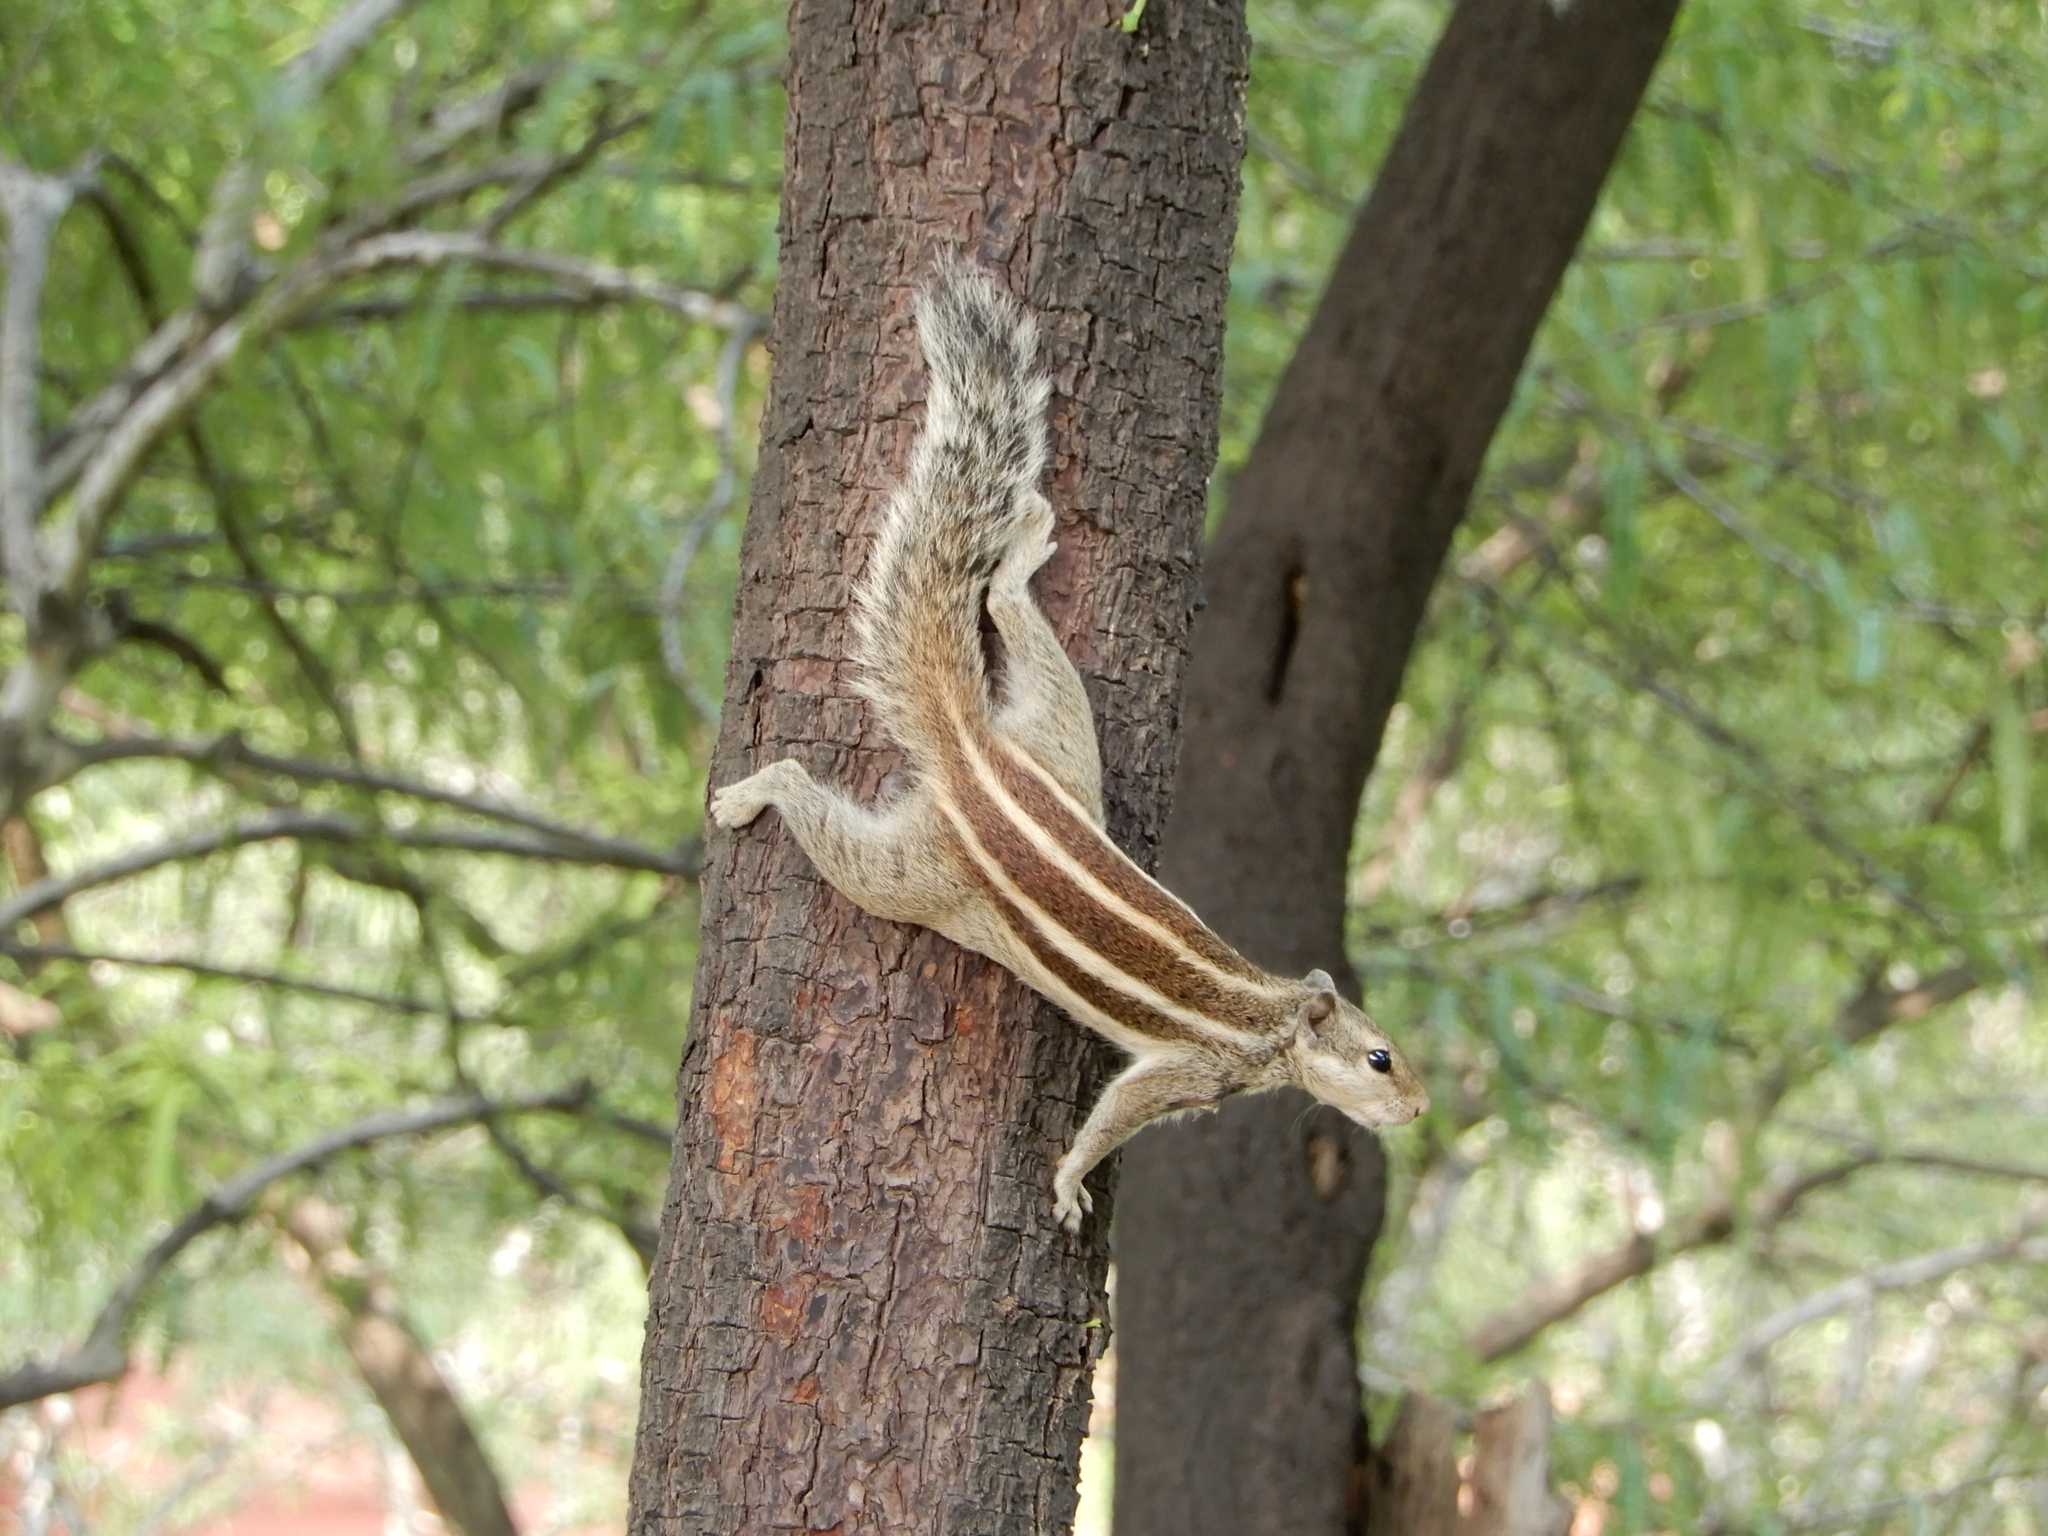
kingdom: Animalia
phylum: Chordata
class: Mammalia
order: Rodentia
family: Sciuridae
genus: Funambulus
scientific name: Funambulus pennantii
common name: Northern palm squirrel
